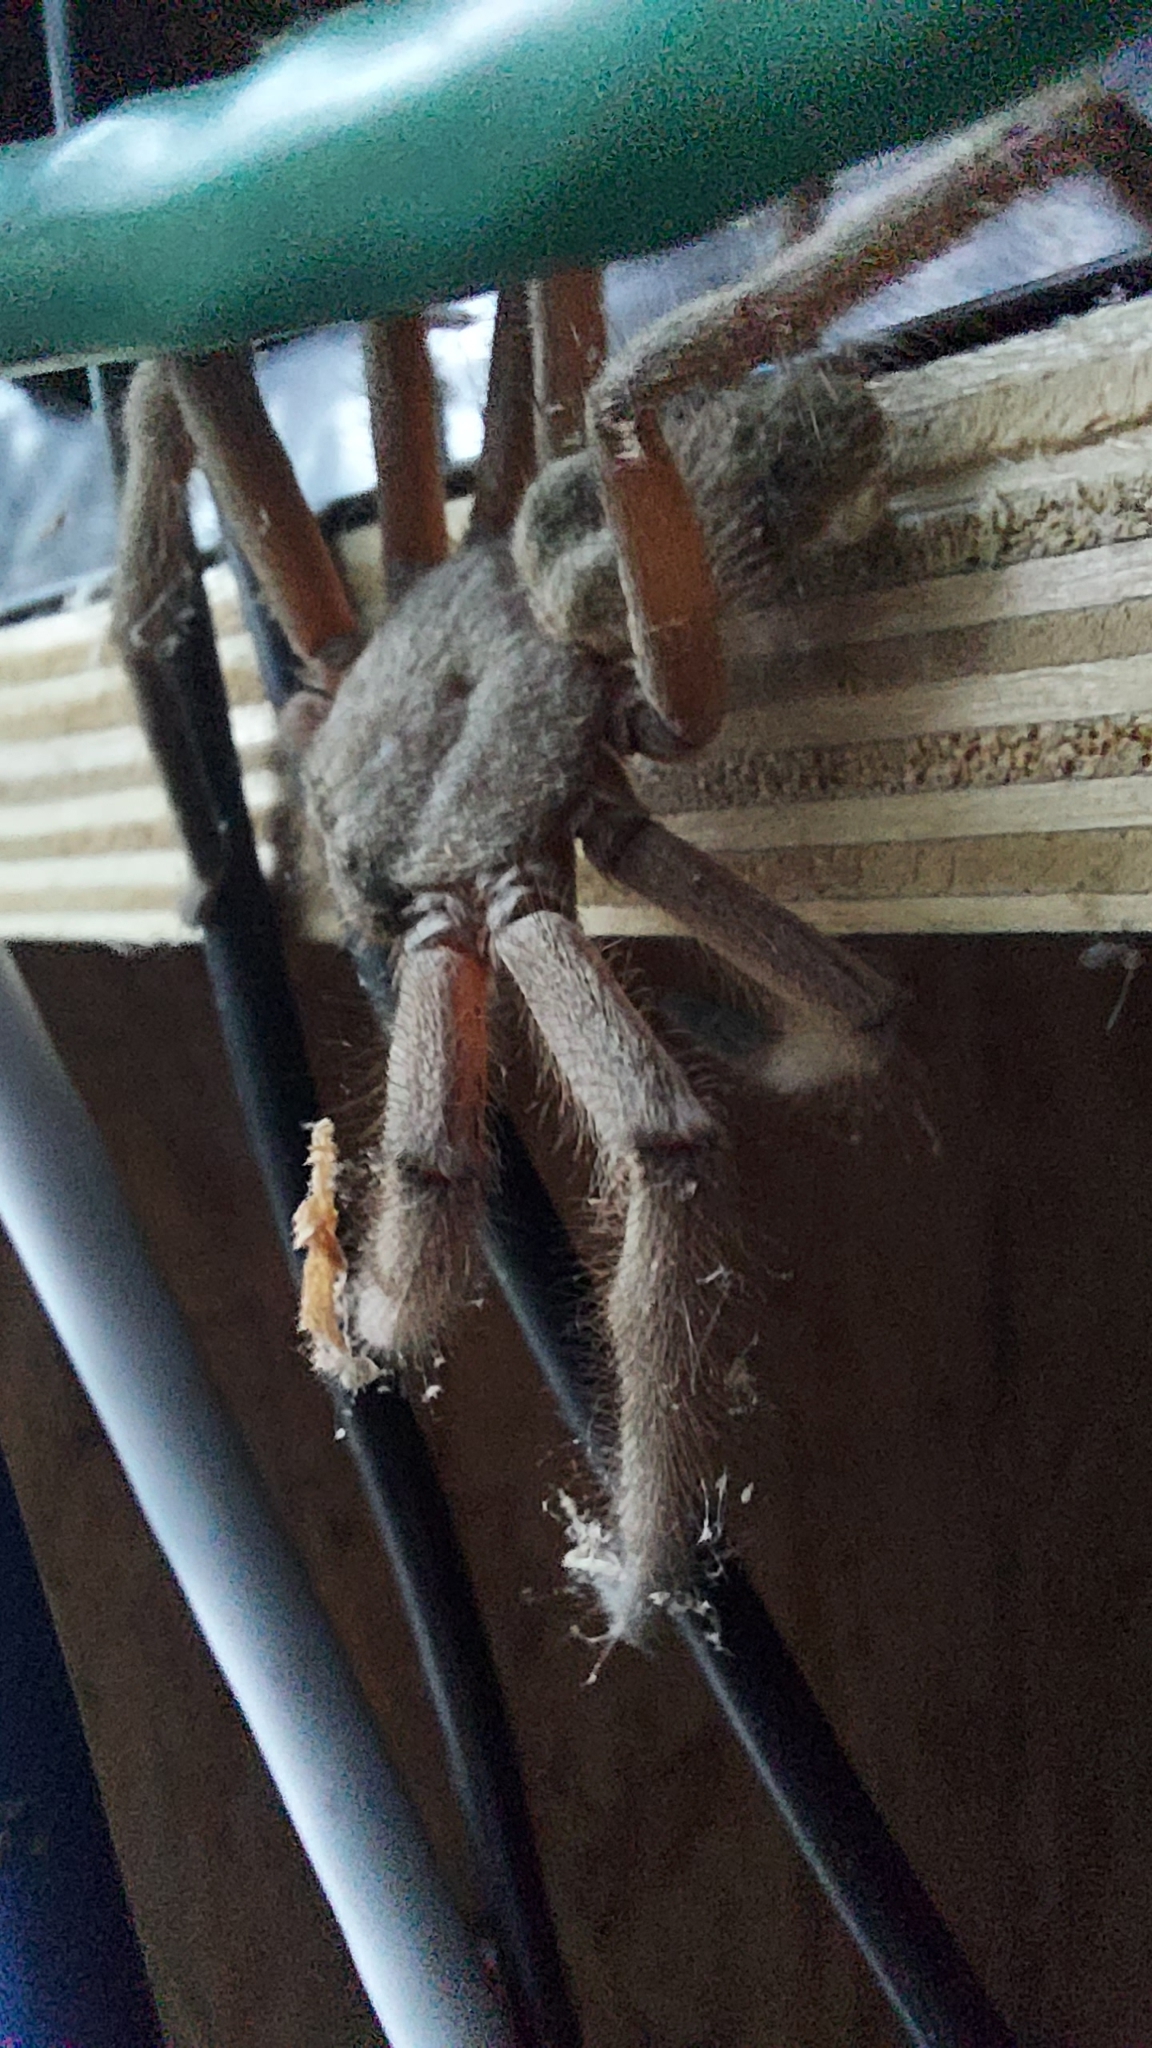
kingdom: Animalia
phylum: Arthropoda
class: Arachnida
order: Araneae
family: Sparassidae
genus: Delena
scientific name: Delena cancerides
